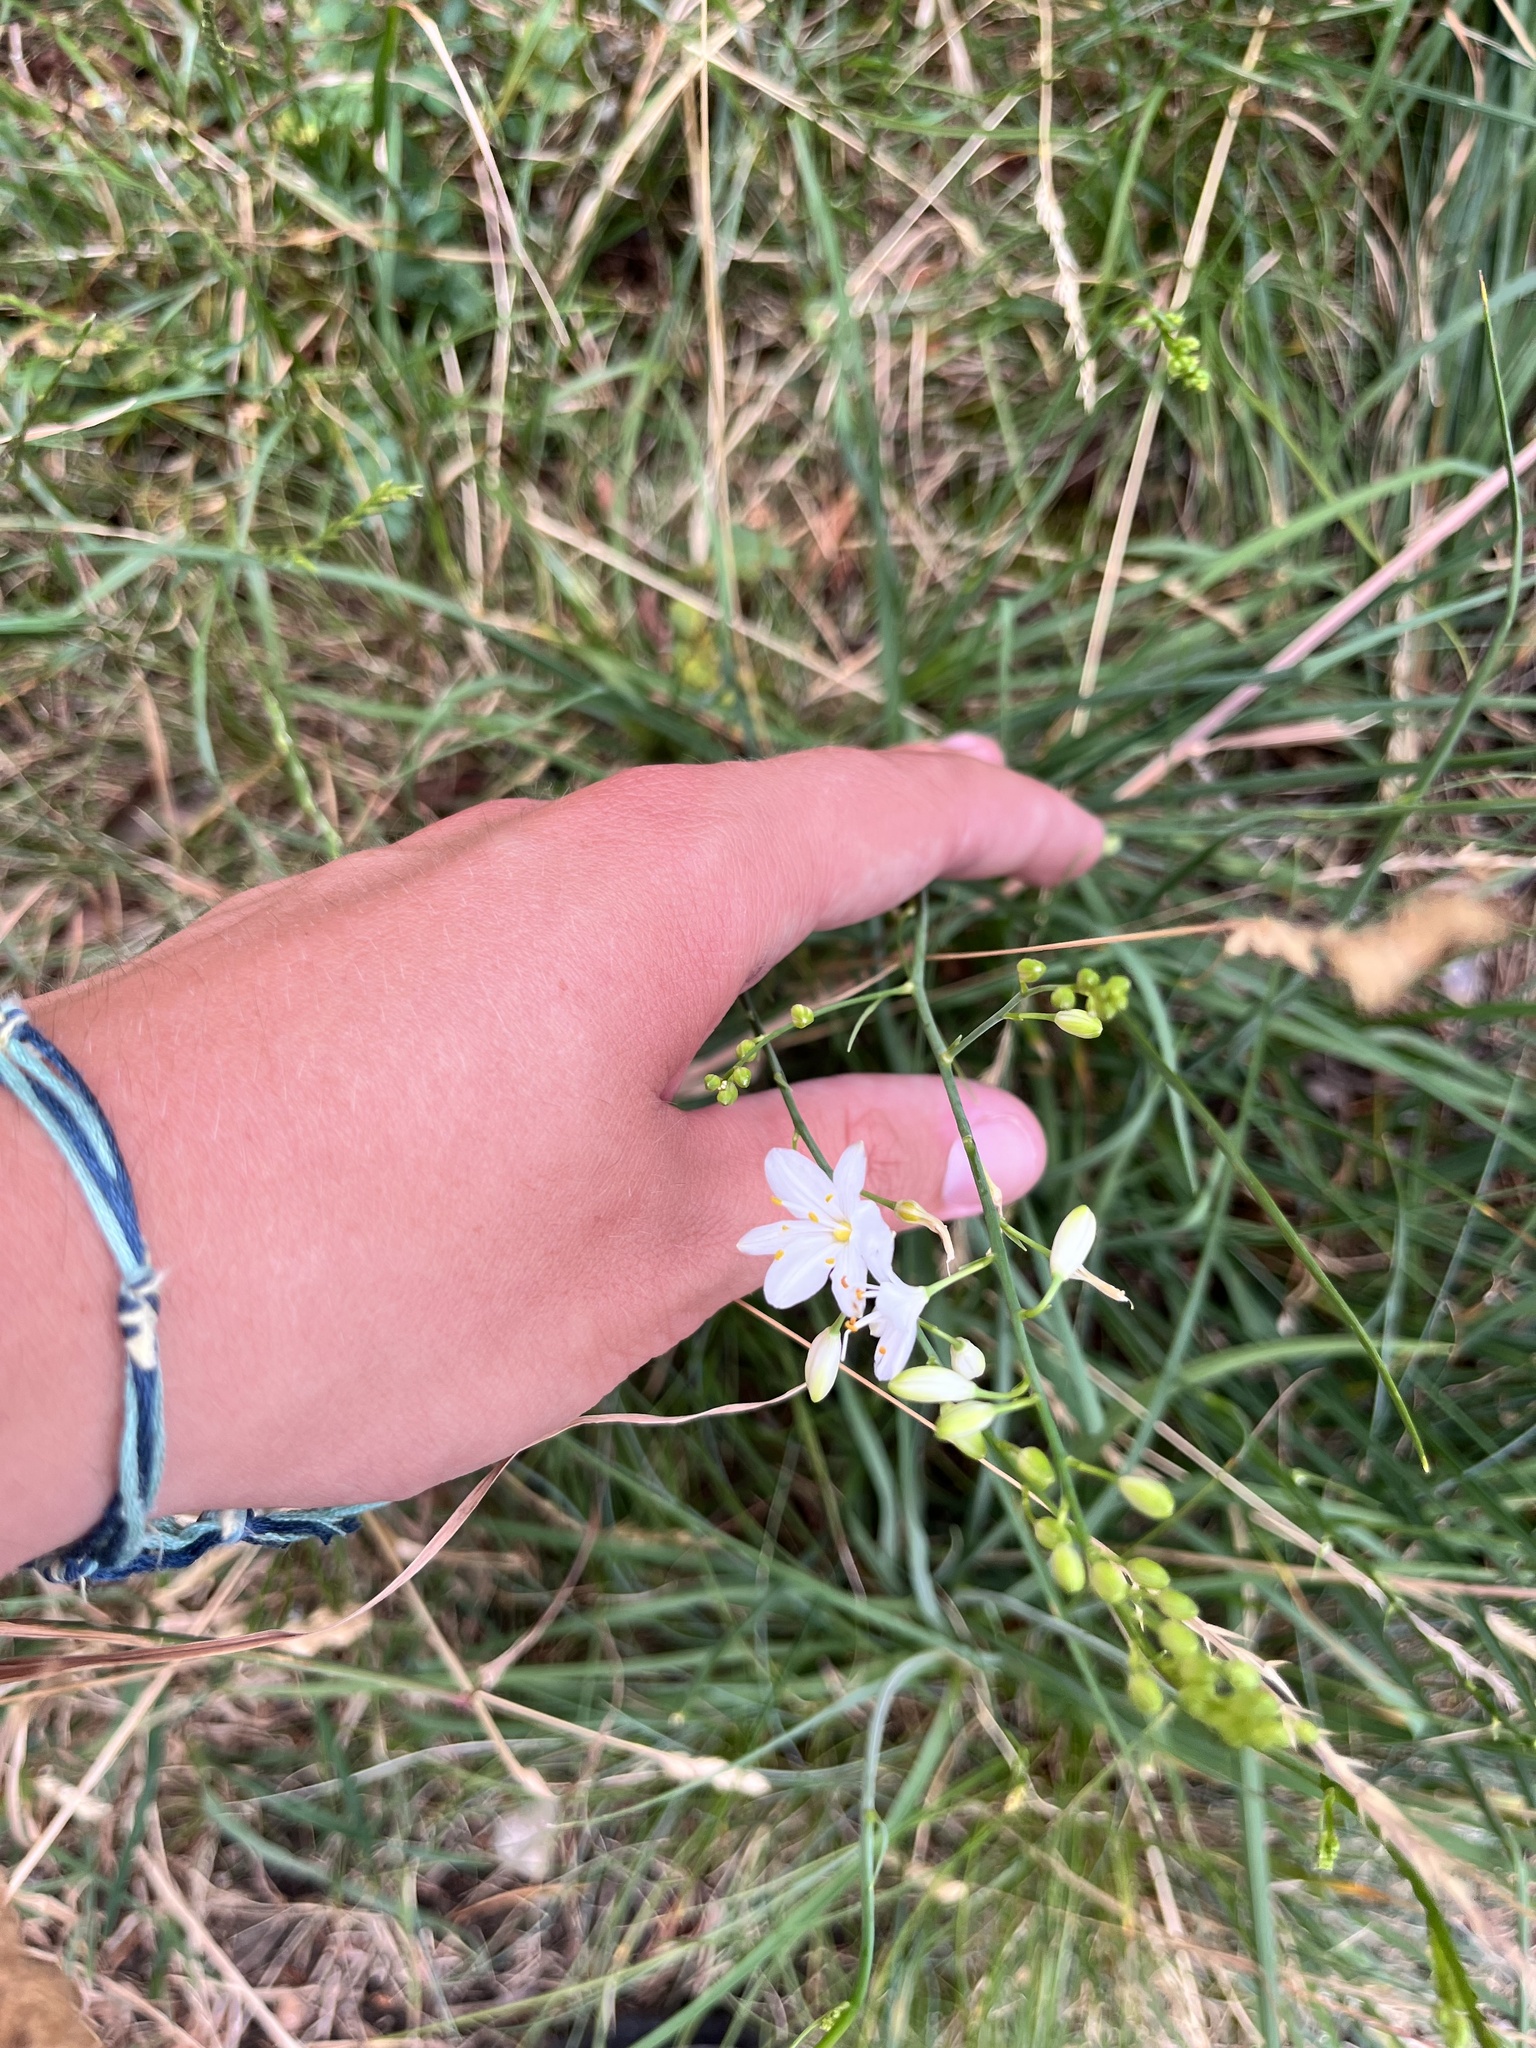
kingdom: Plantae
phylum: Tracheophyta
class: Liliopsida
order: Asparagales
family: Asparagaceae
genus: Anthericum
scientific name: Anthericum ramosum
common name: Branched st. bernard's-lily
